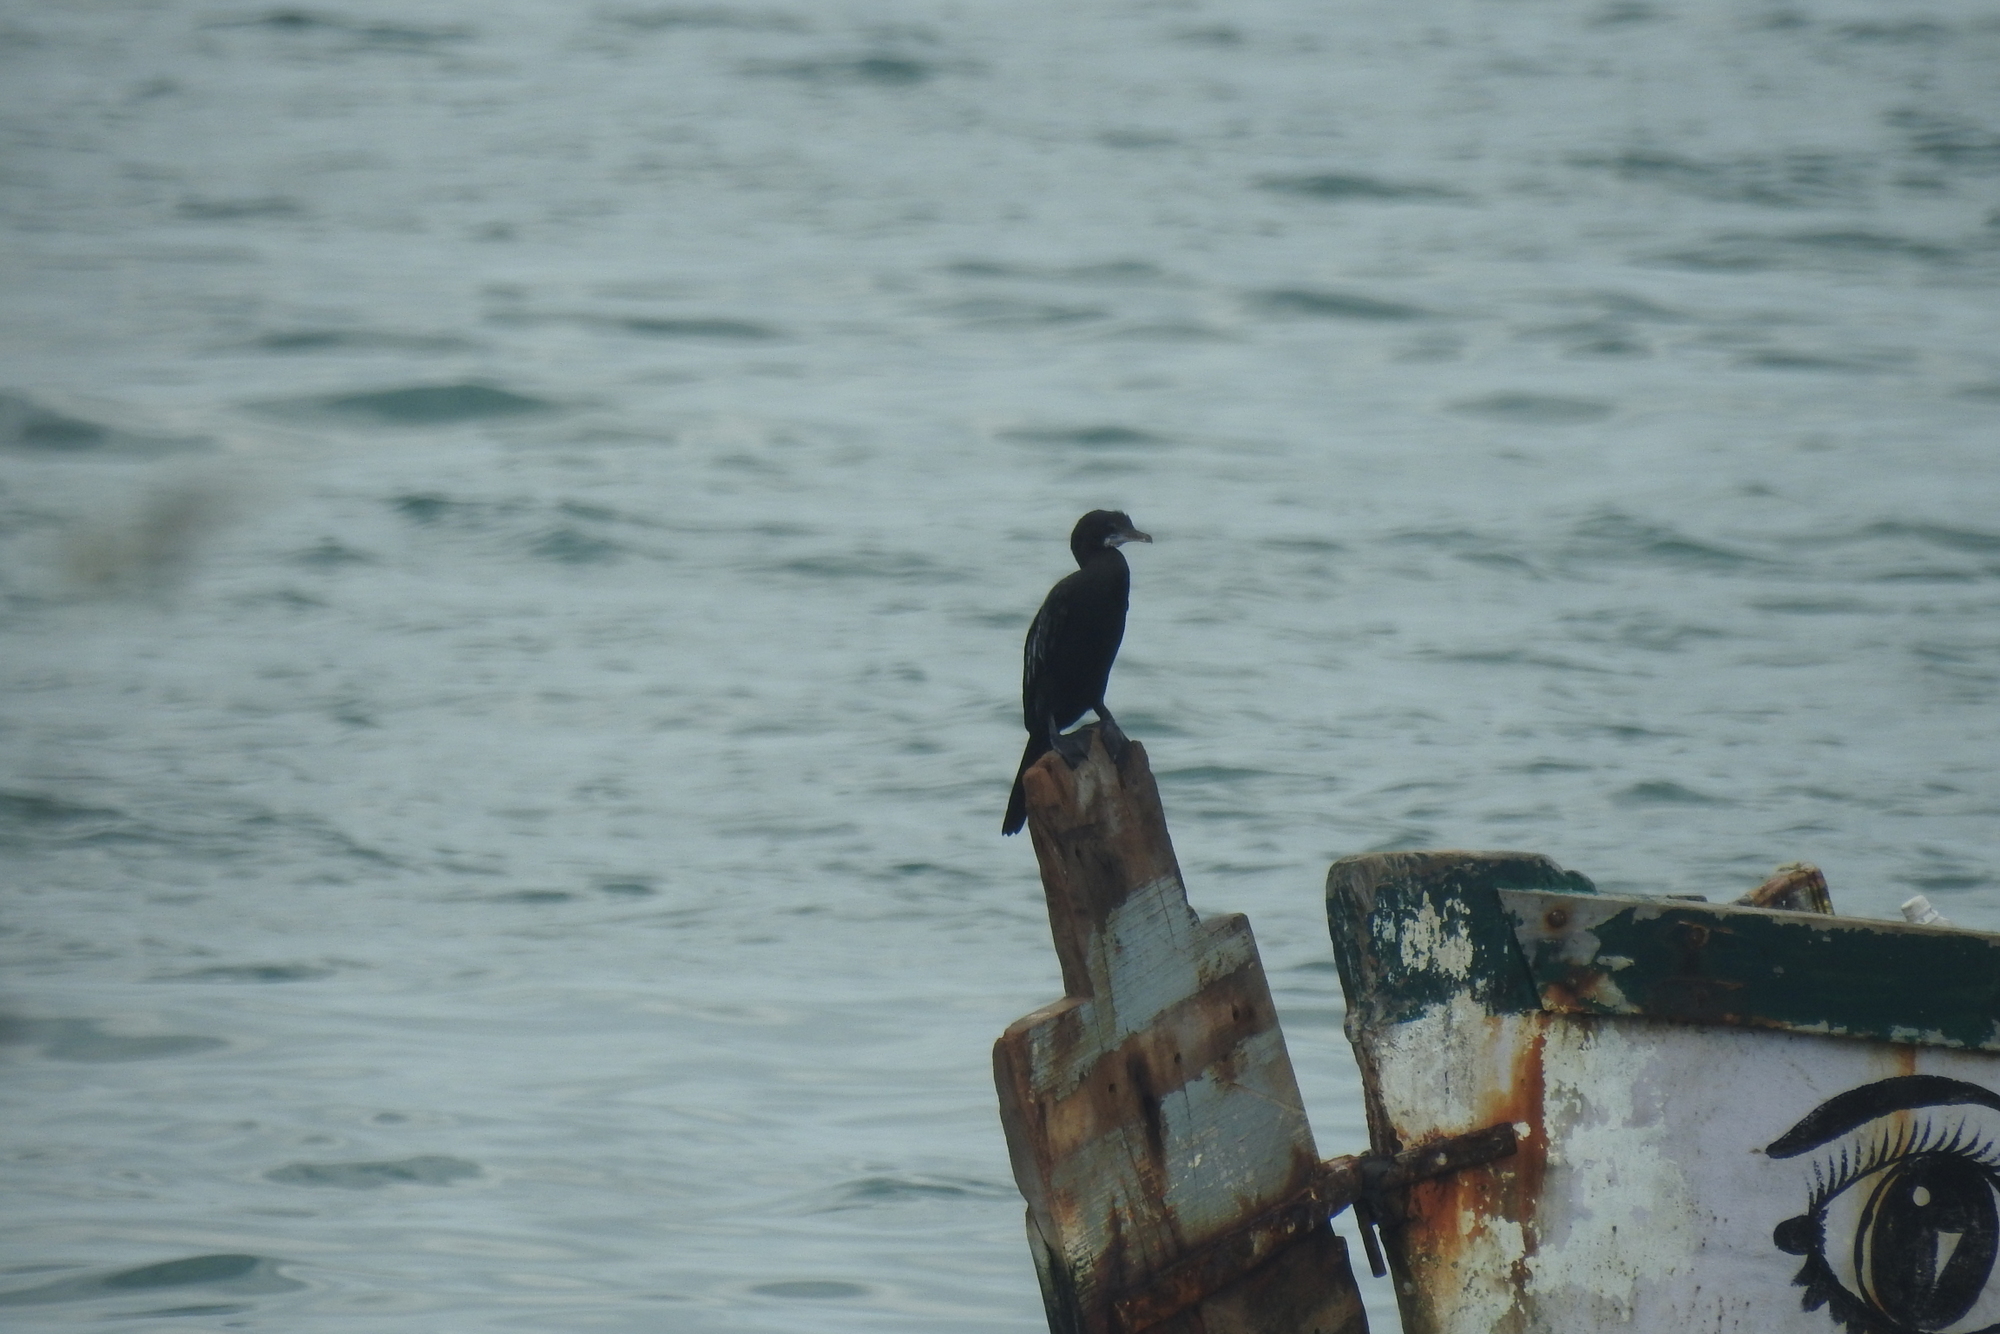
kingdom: Animalia
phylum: Chordata
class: Aves
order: Suliformes
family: Phalacrocoracidae
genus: Microcarbo
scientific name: Microcarbo niger
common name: Little cormorant
